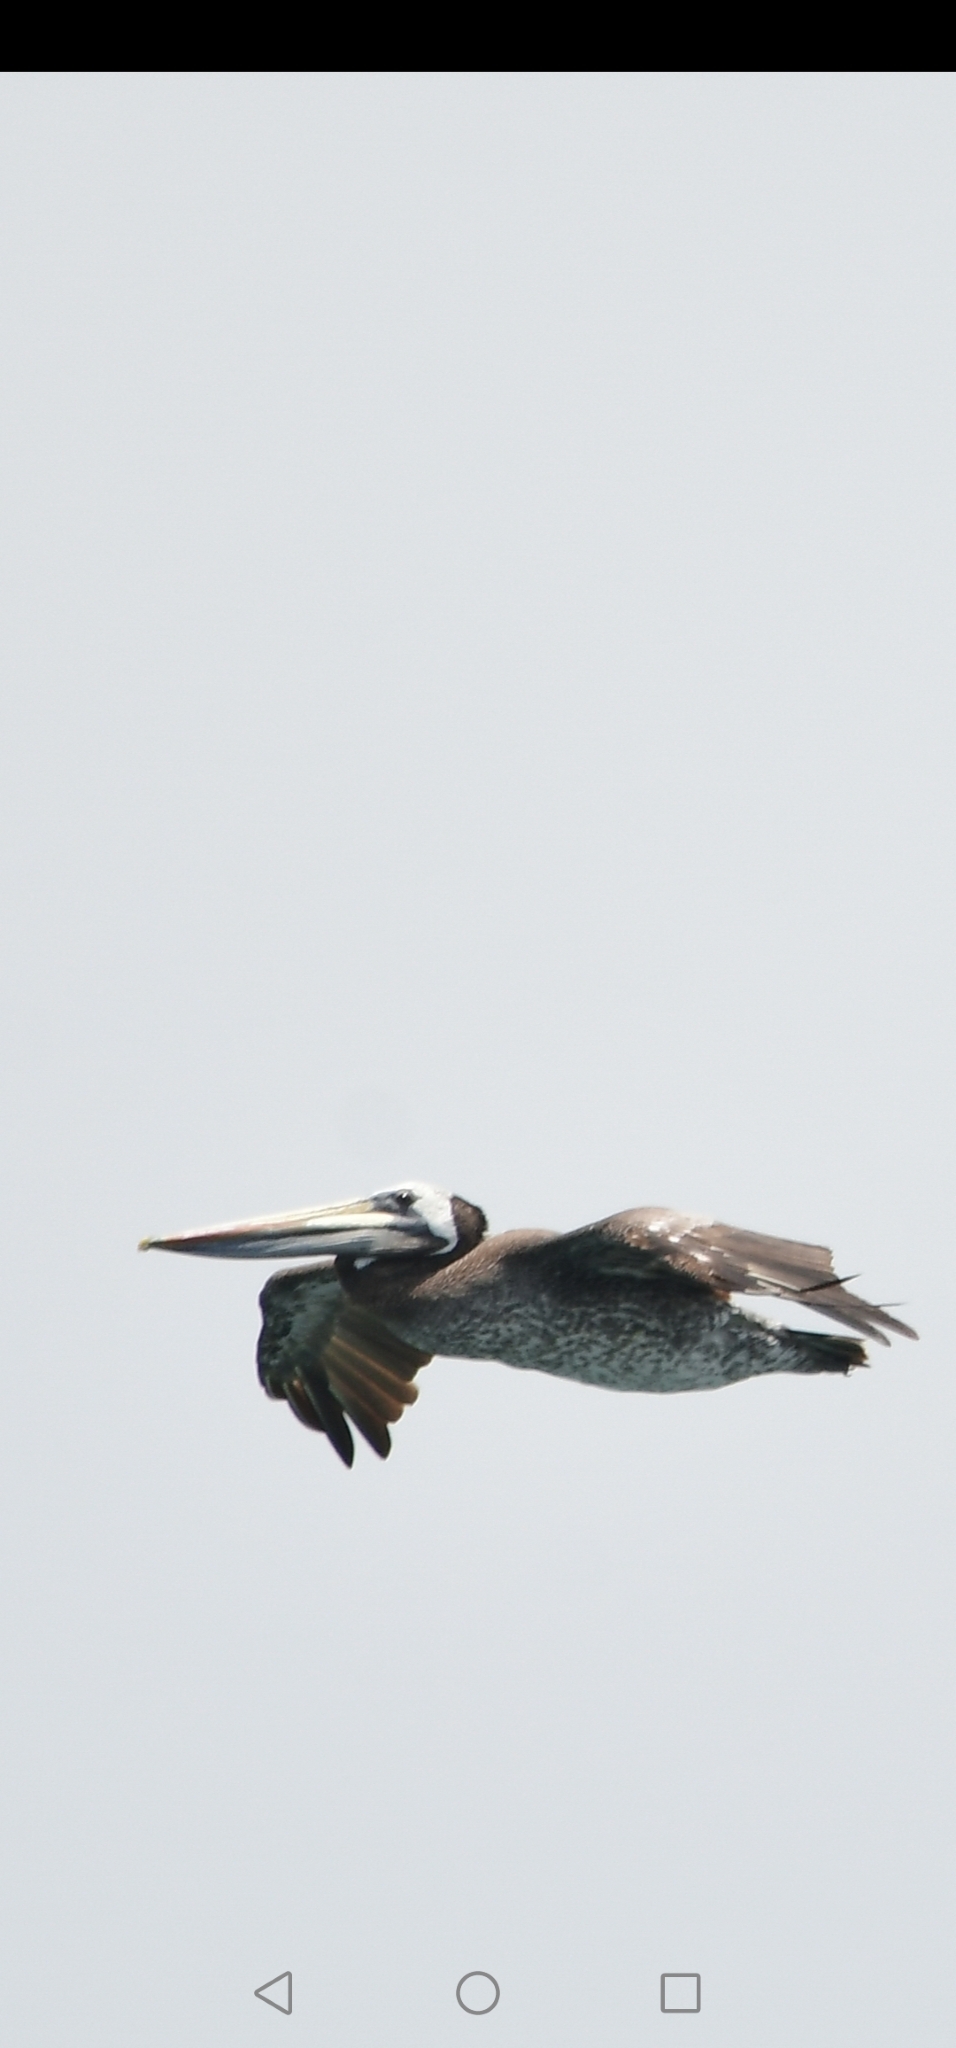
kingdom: Animalia
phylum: Chordata
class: Aves
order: Pelecaniformes
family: Pelecanidae
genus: Pelecanus
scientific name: Pelecanus thagus
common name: Peruvian pelican
